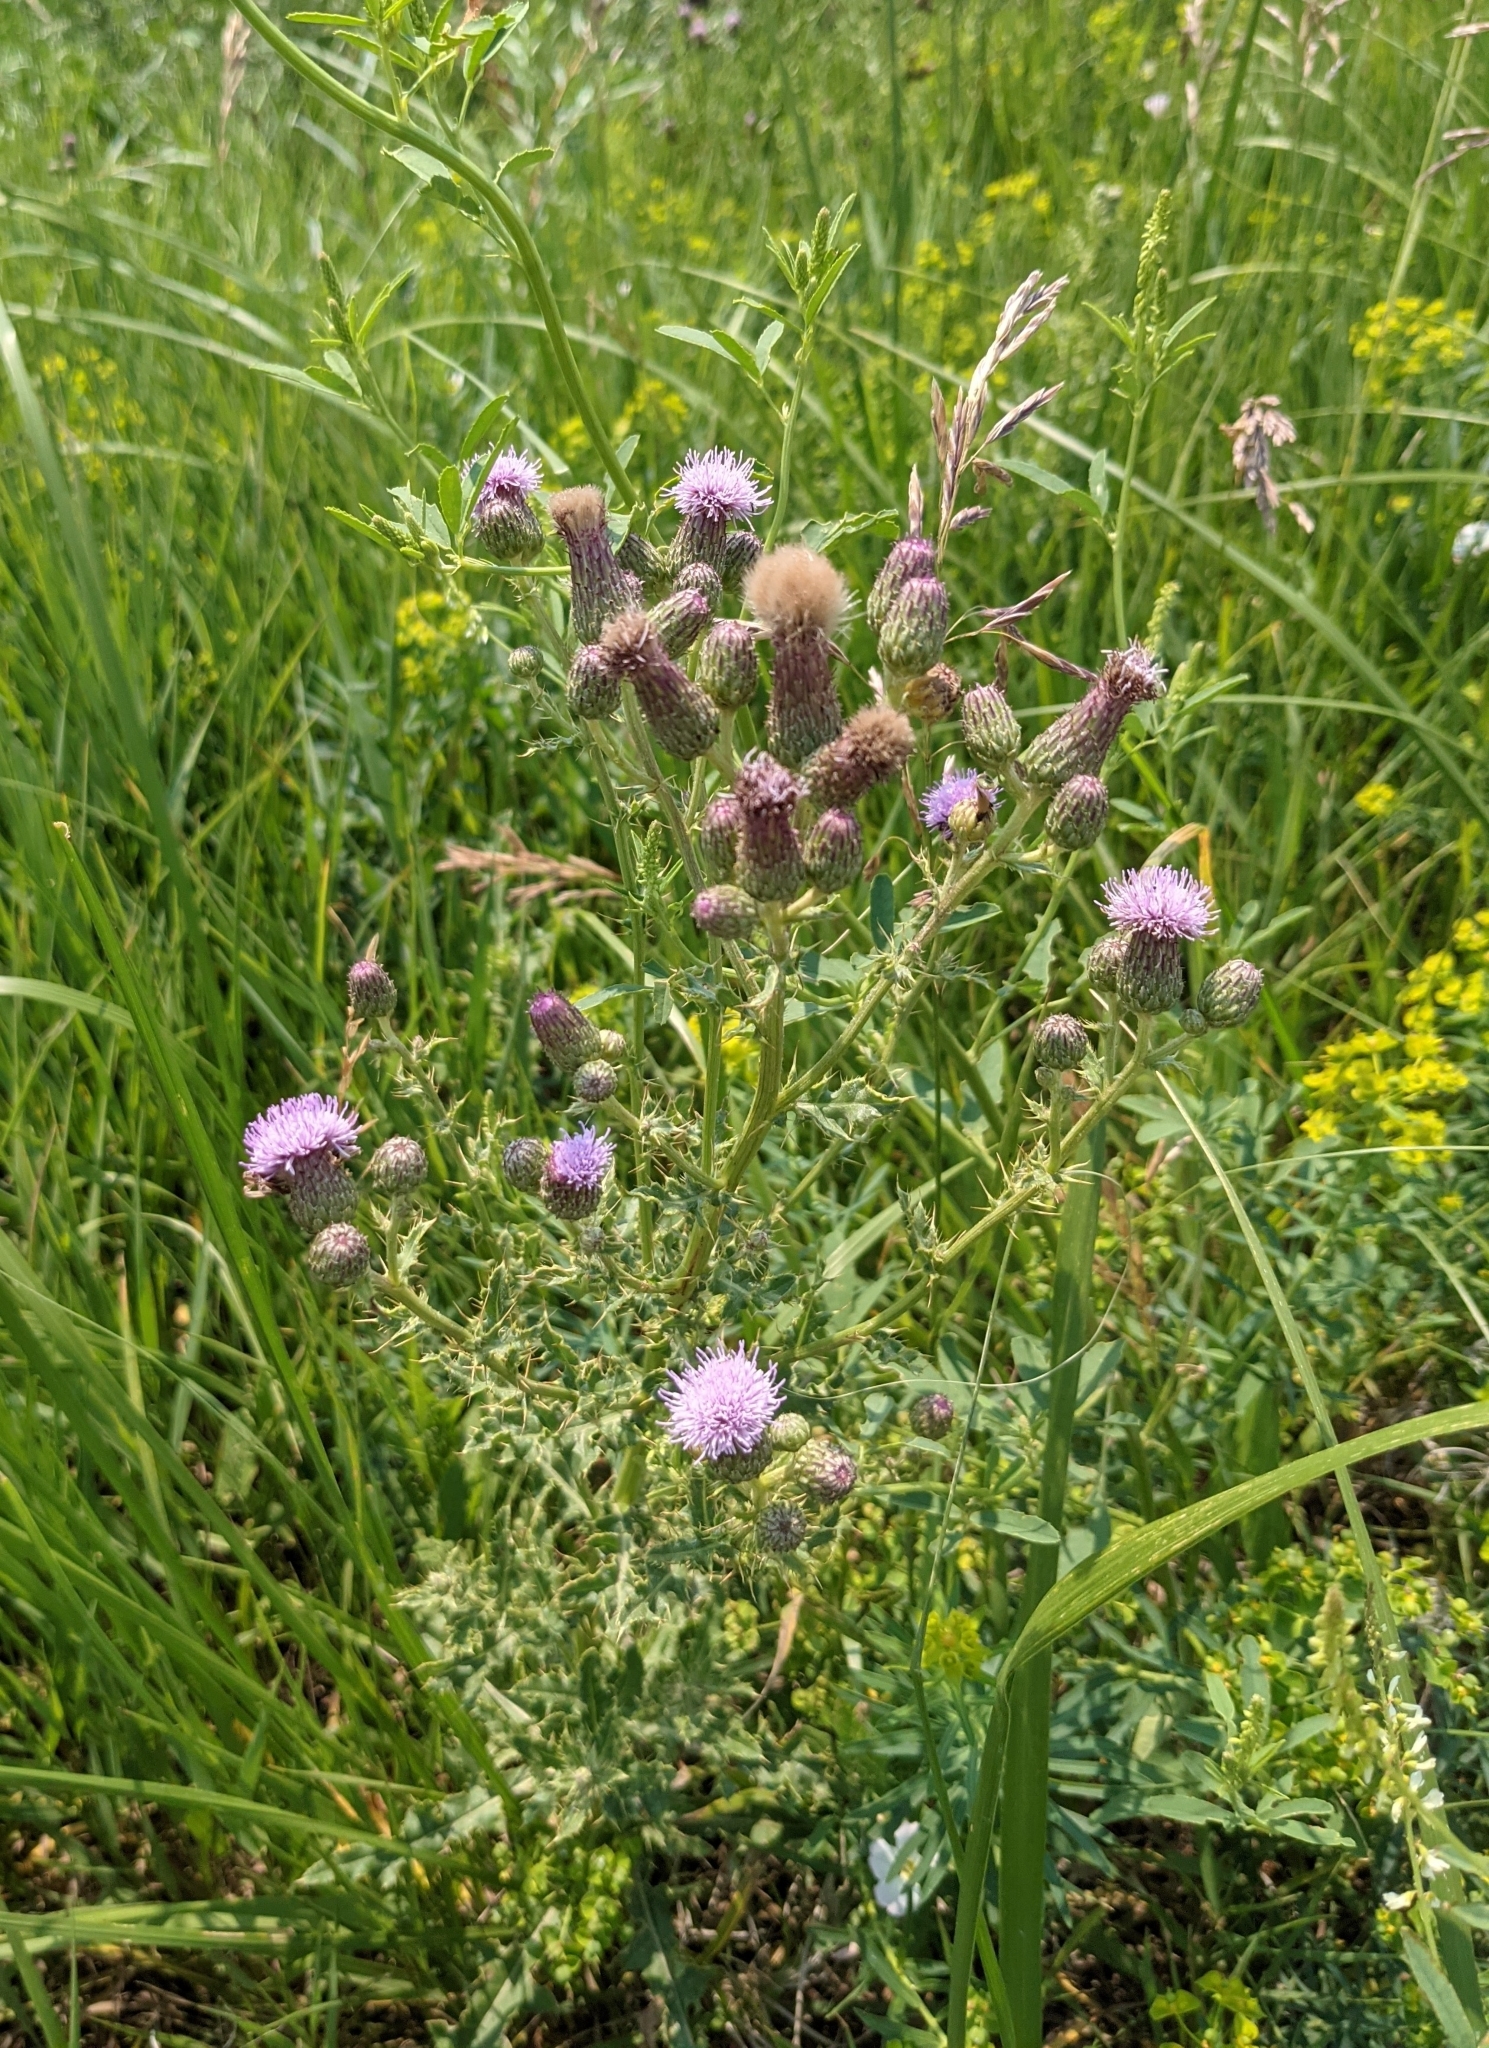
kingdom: Plantae
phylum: Tracheophyta
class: Magnoliopsida
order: Asterales
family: Asteraceae
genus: Cirsium
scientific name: Cirsium arvense
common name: Creeping thistle
